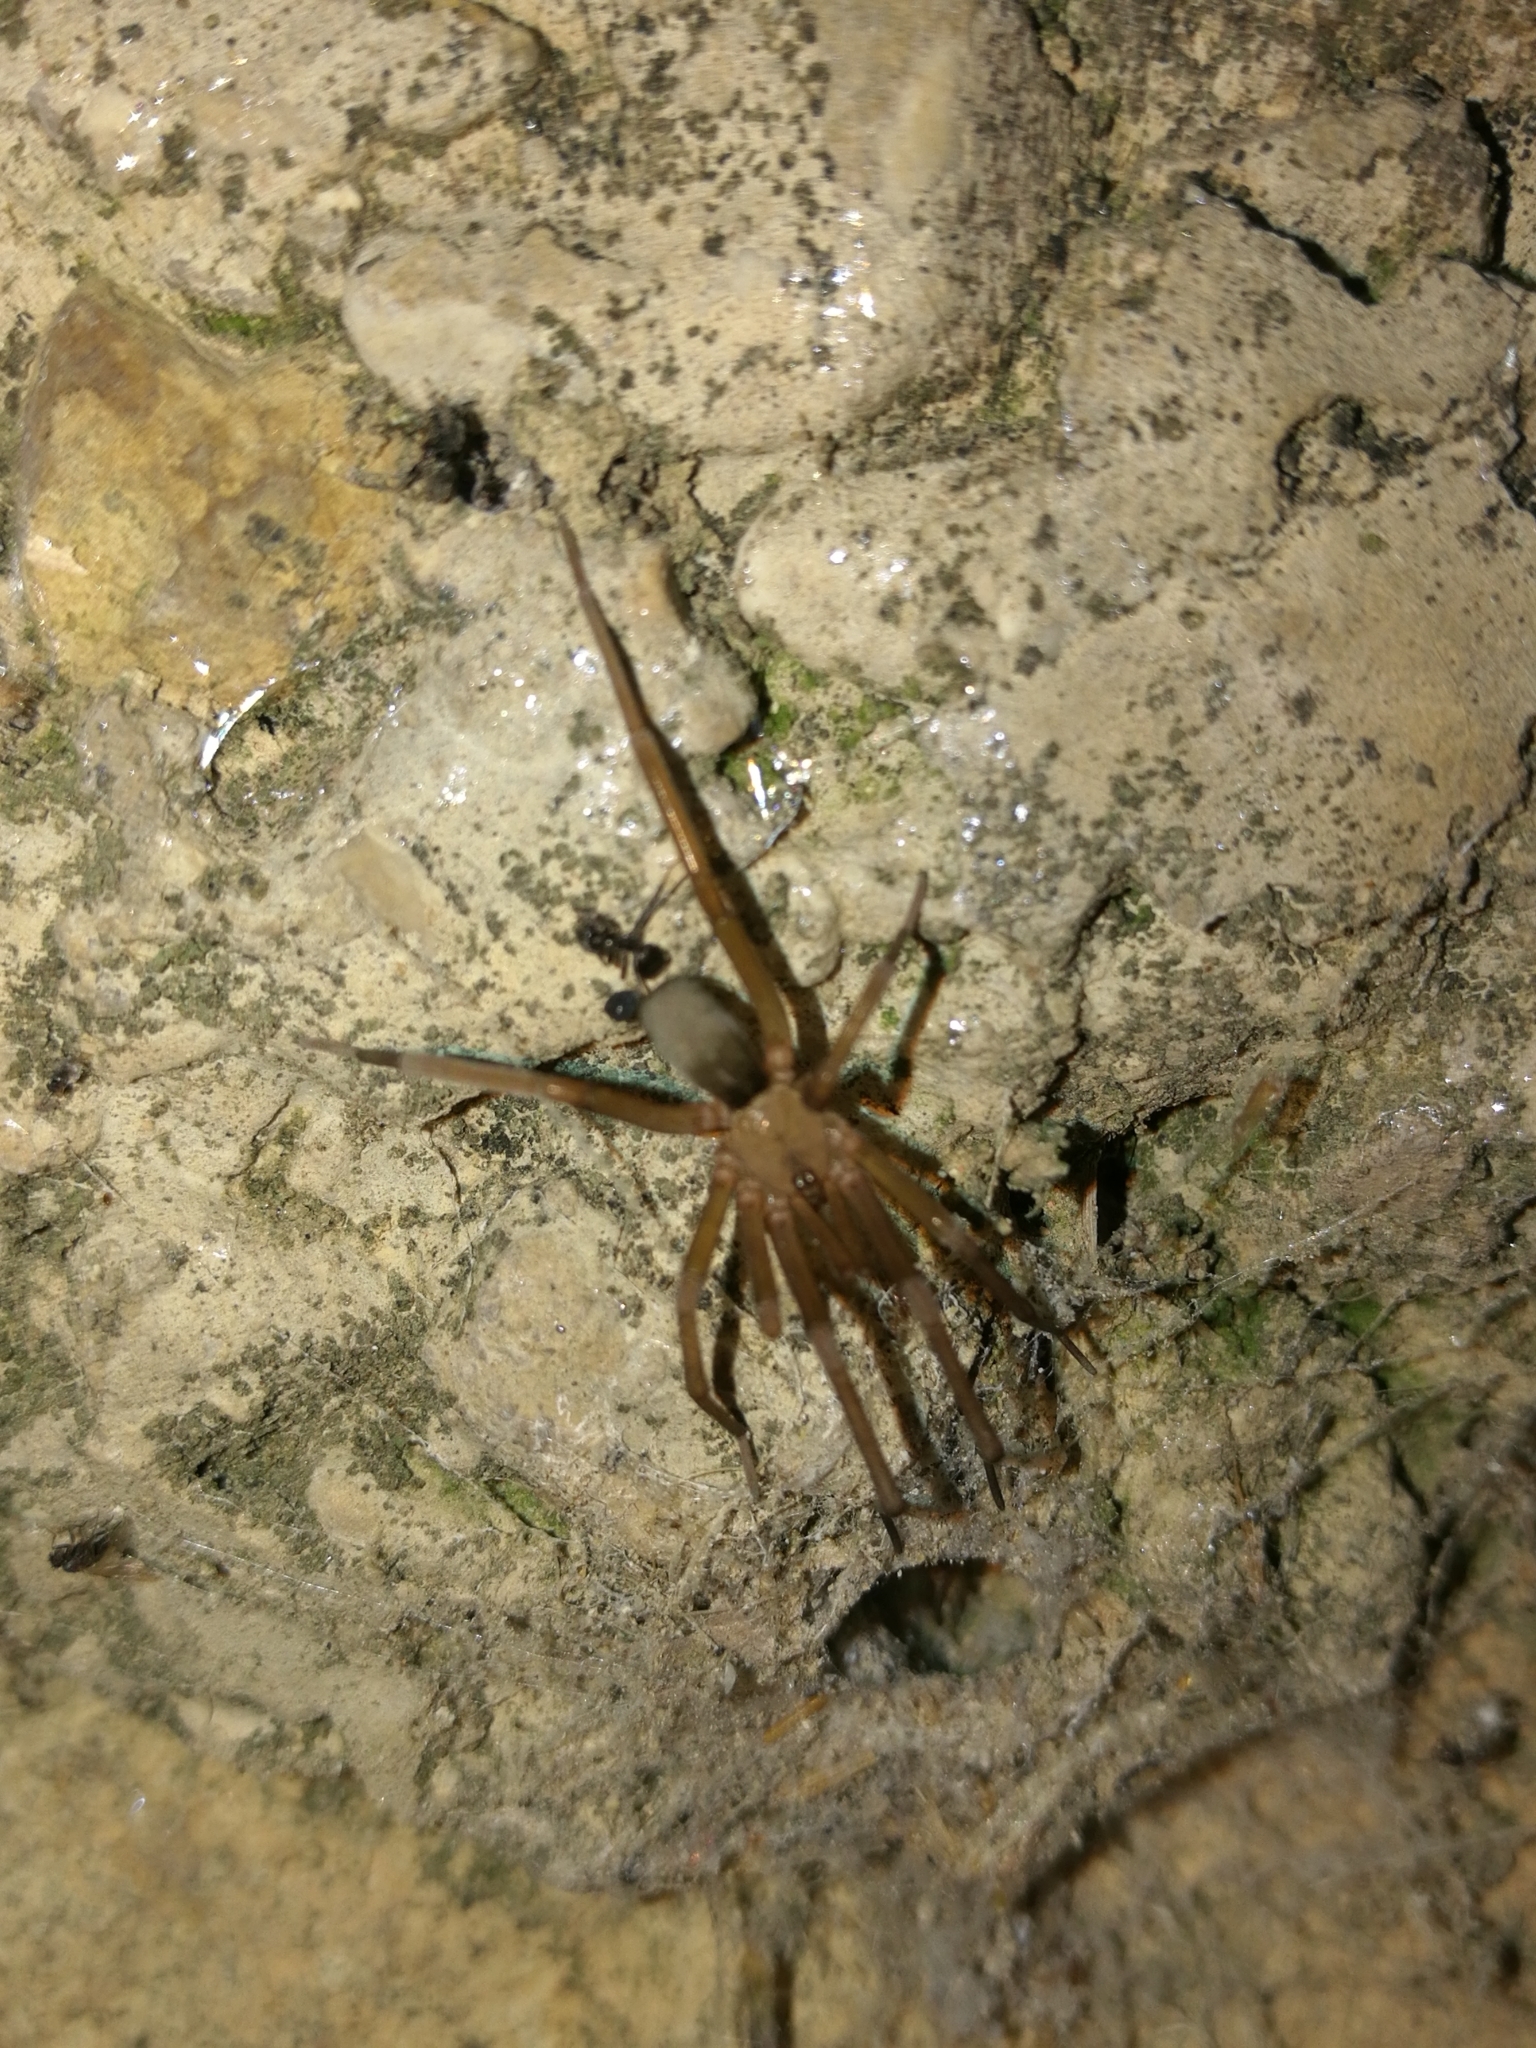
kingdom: Animalia
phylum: Arthropoda
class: Arachnida
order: Araneae
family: Filistatidae
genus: Filistata
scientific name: Filistata insidiatrix
